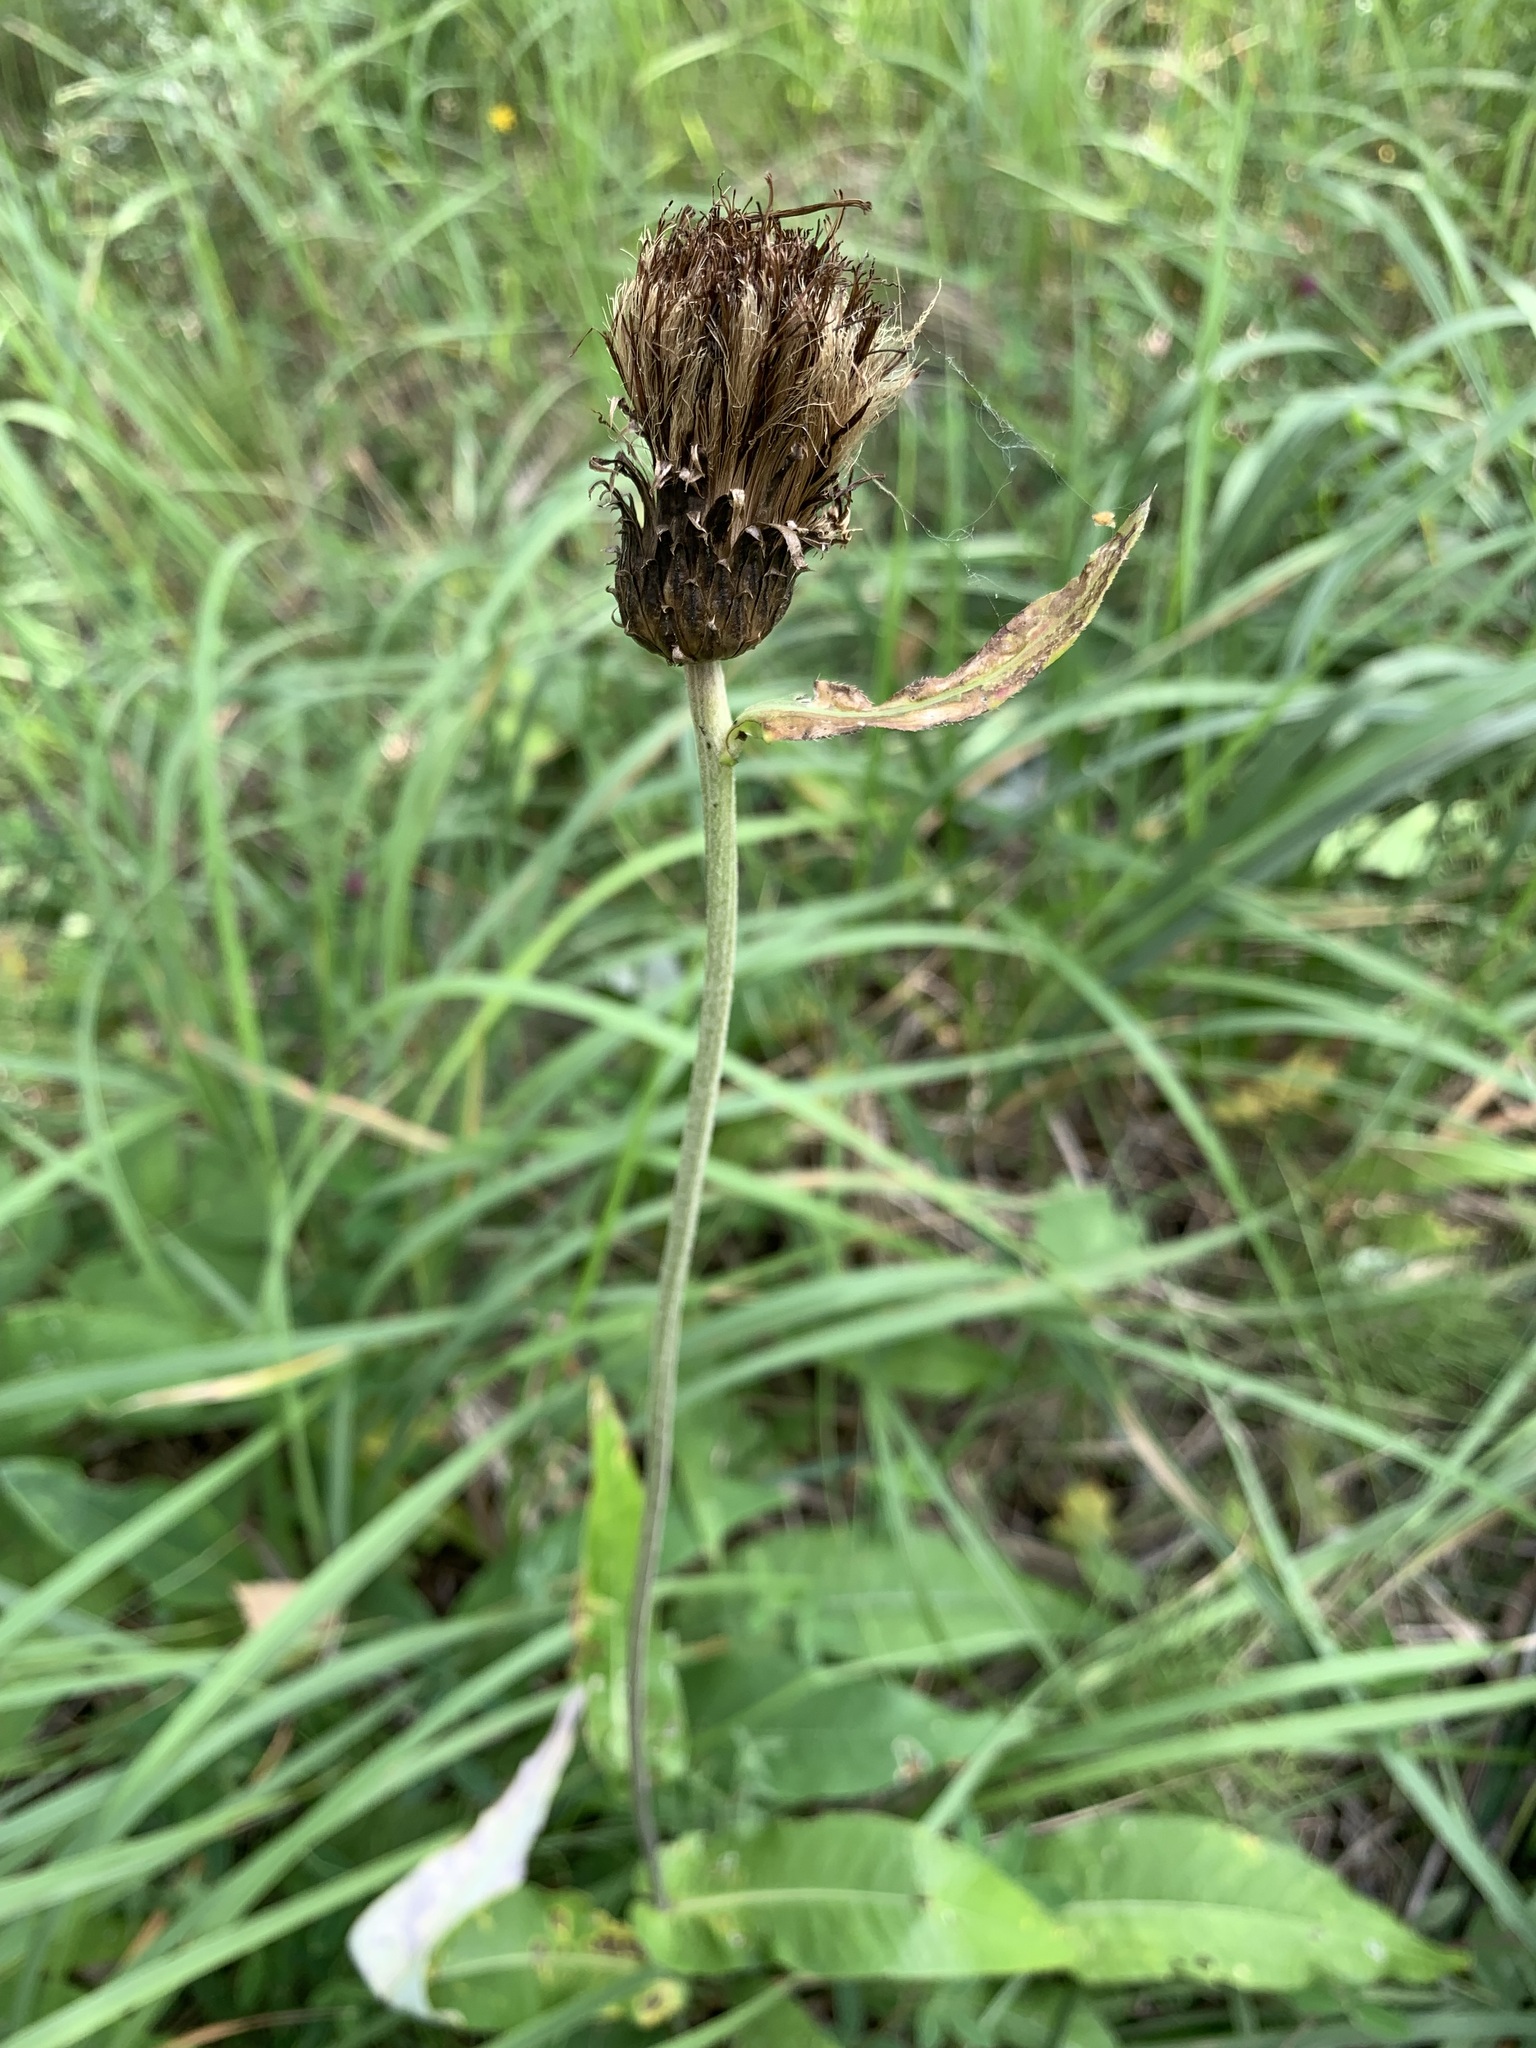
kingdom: Plantae
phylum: Tracheophyta
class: Magnoliopsida
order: Asterales
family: Asteraceae
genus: Cirsium
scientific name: Cirsium heterophyllum
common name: Melancholy thistle
